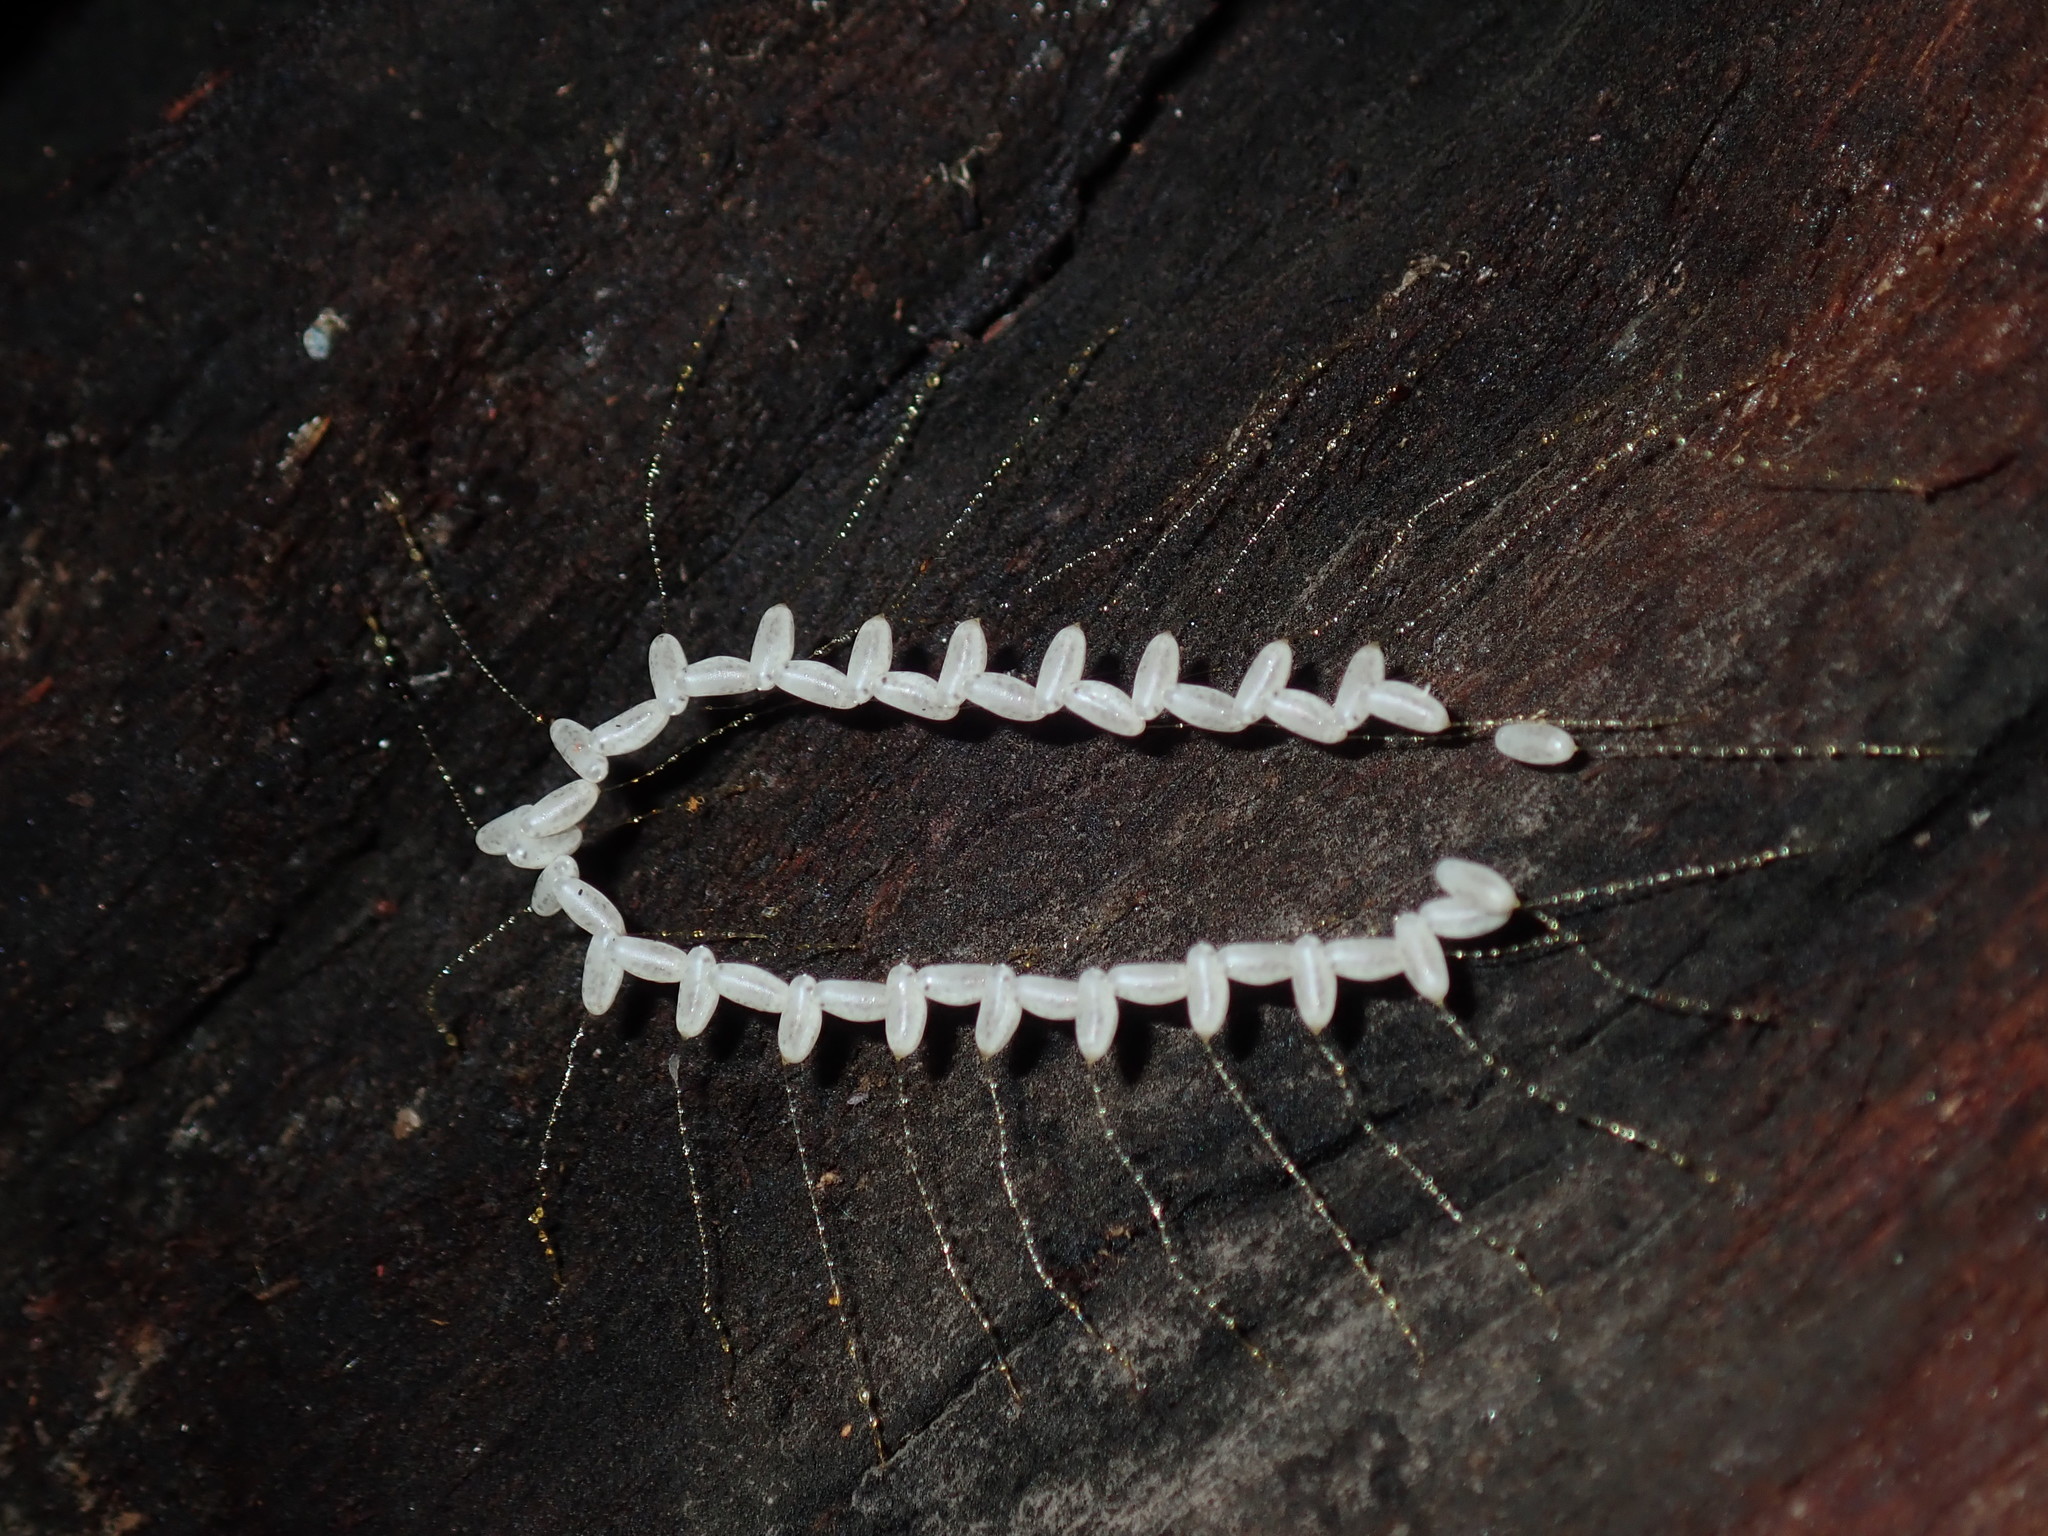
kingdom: Animalia
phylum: Arthropoda
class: Insecta
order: Neuroptera
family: Nymphidae
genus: Nymphes
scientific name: Nymphes myrmeleonoides
